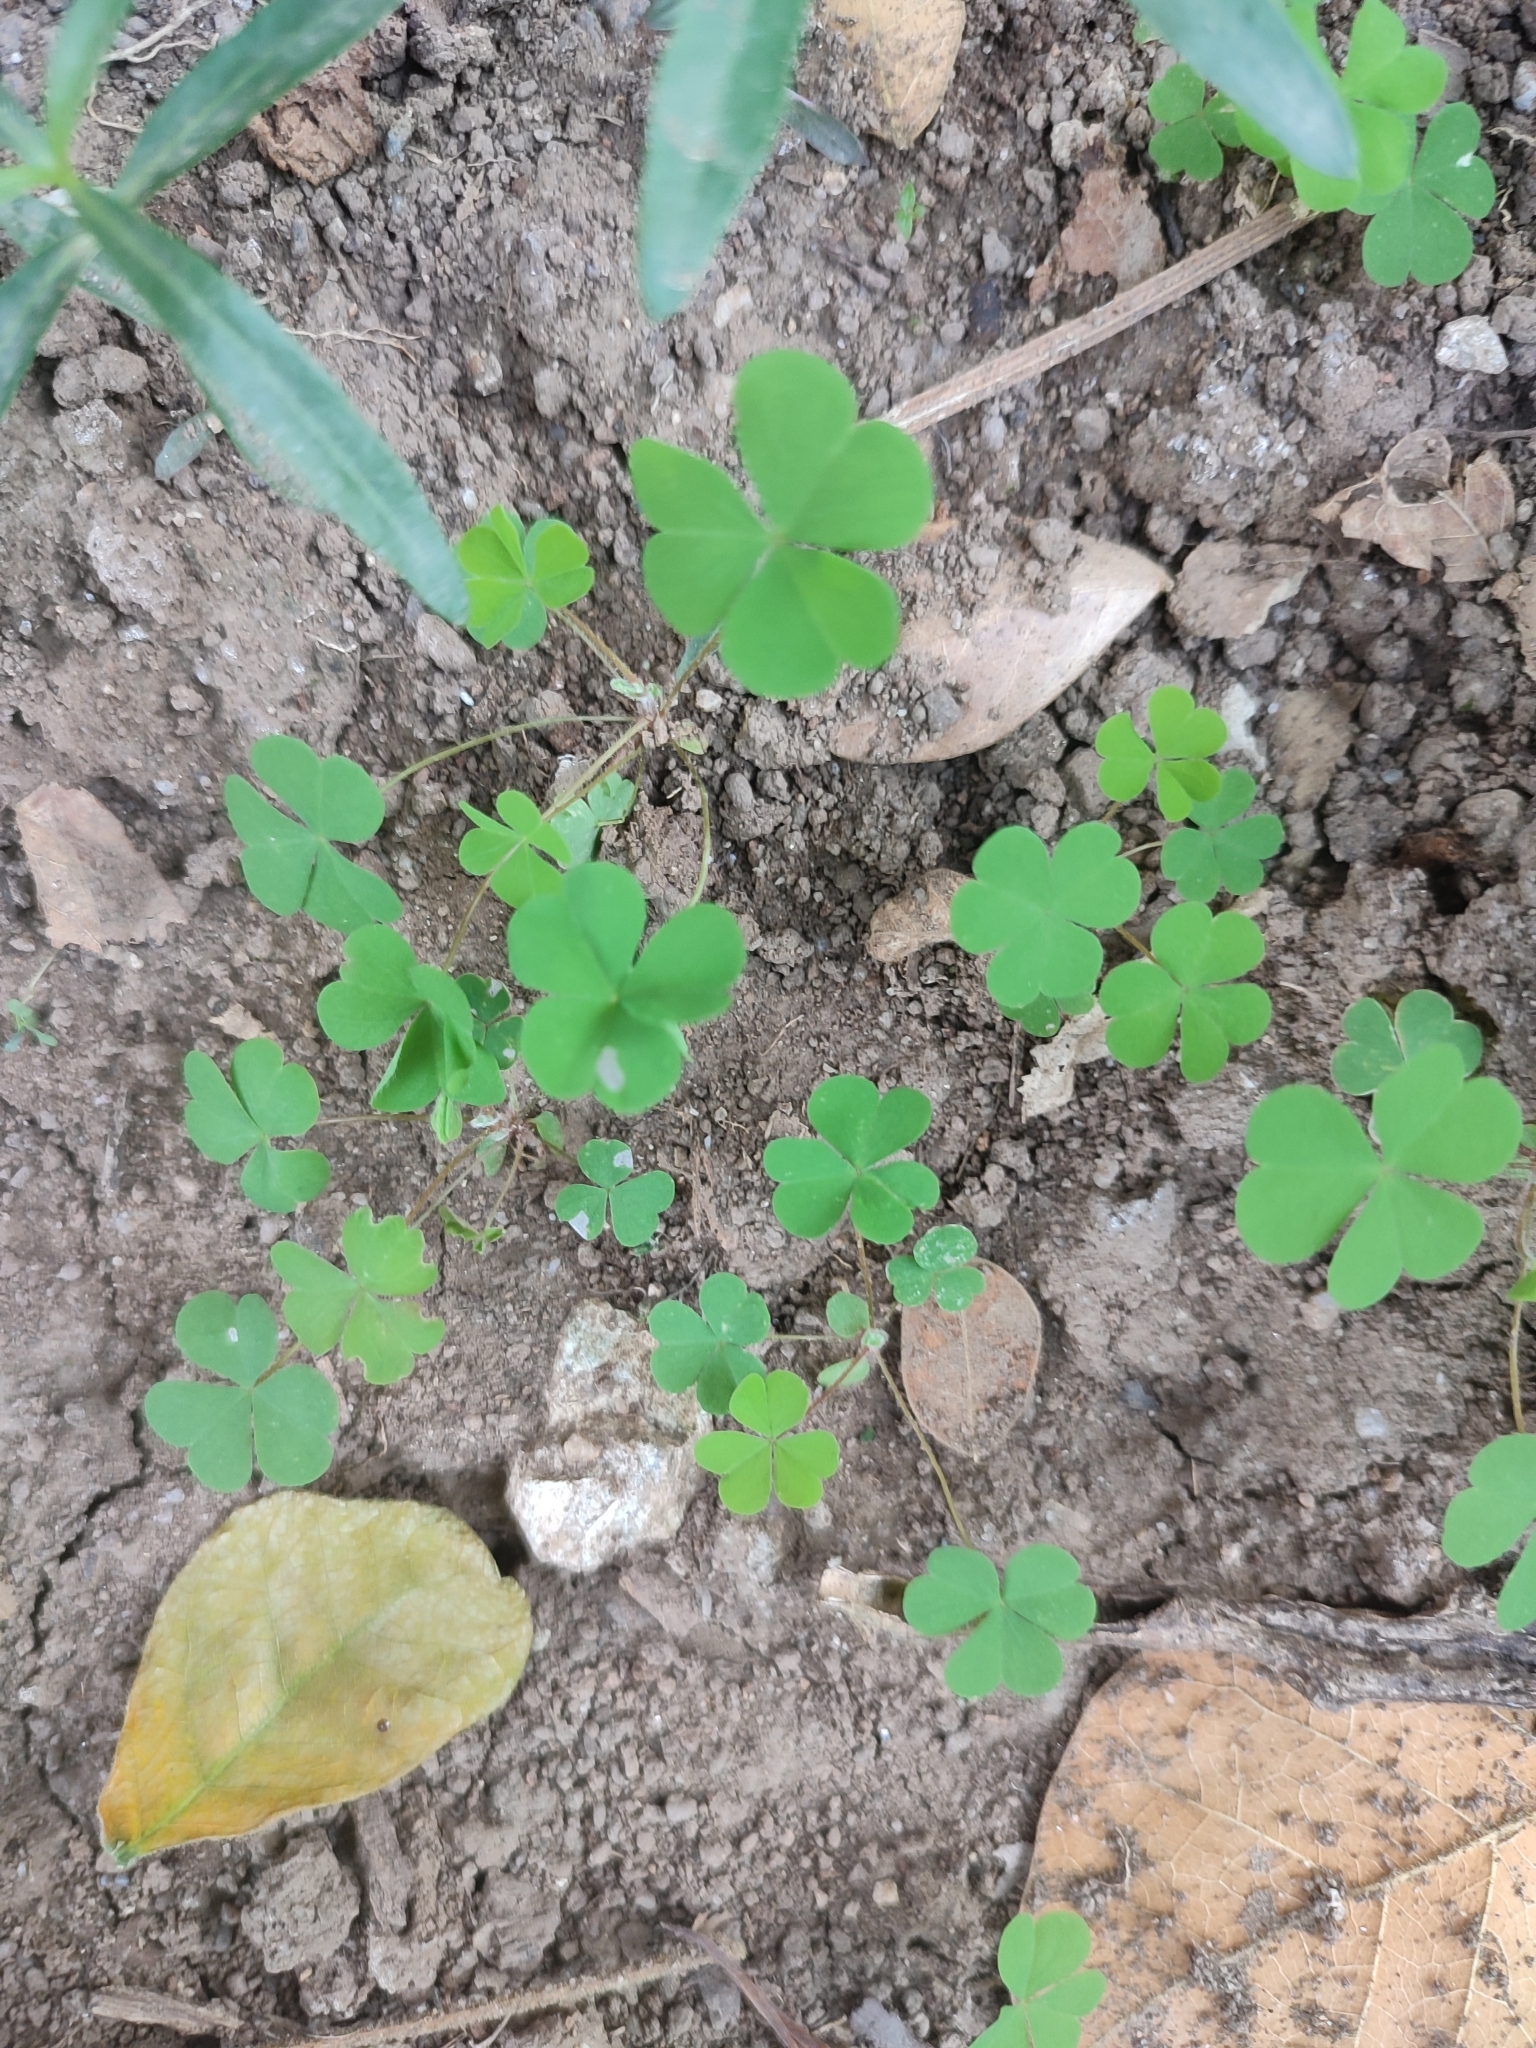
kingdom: Plantae
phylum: Tracheophyta
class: Magnoliopsida
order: Oxalidales
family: Oxalidaceae
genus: Oxalis
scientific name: Oxalis corniculata
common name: Procumbent yellow-sorrel
